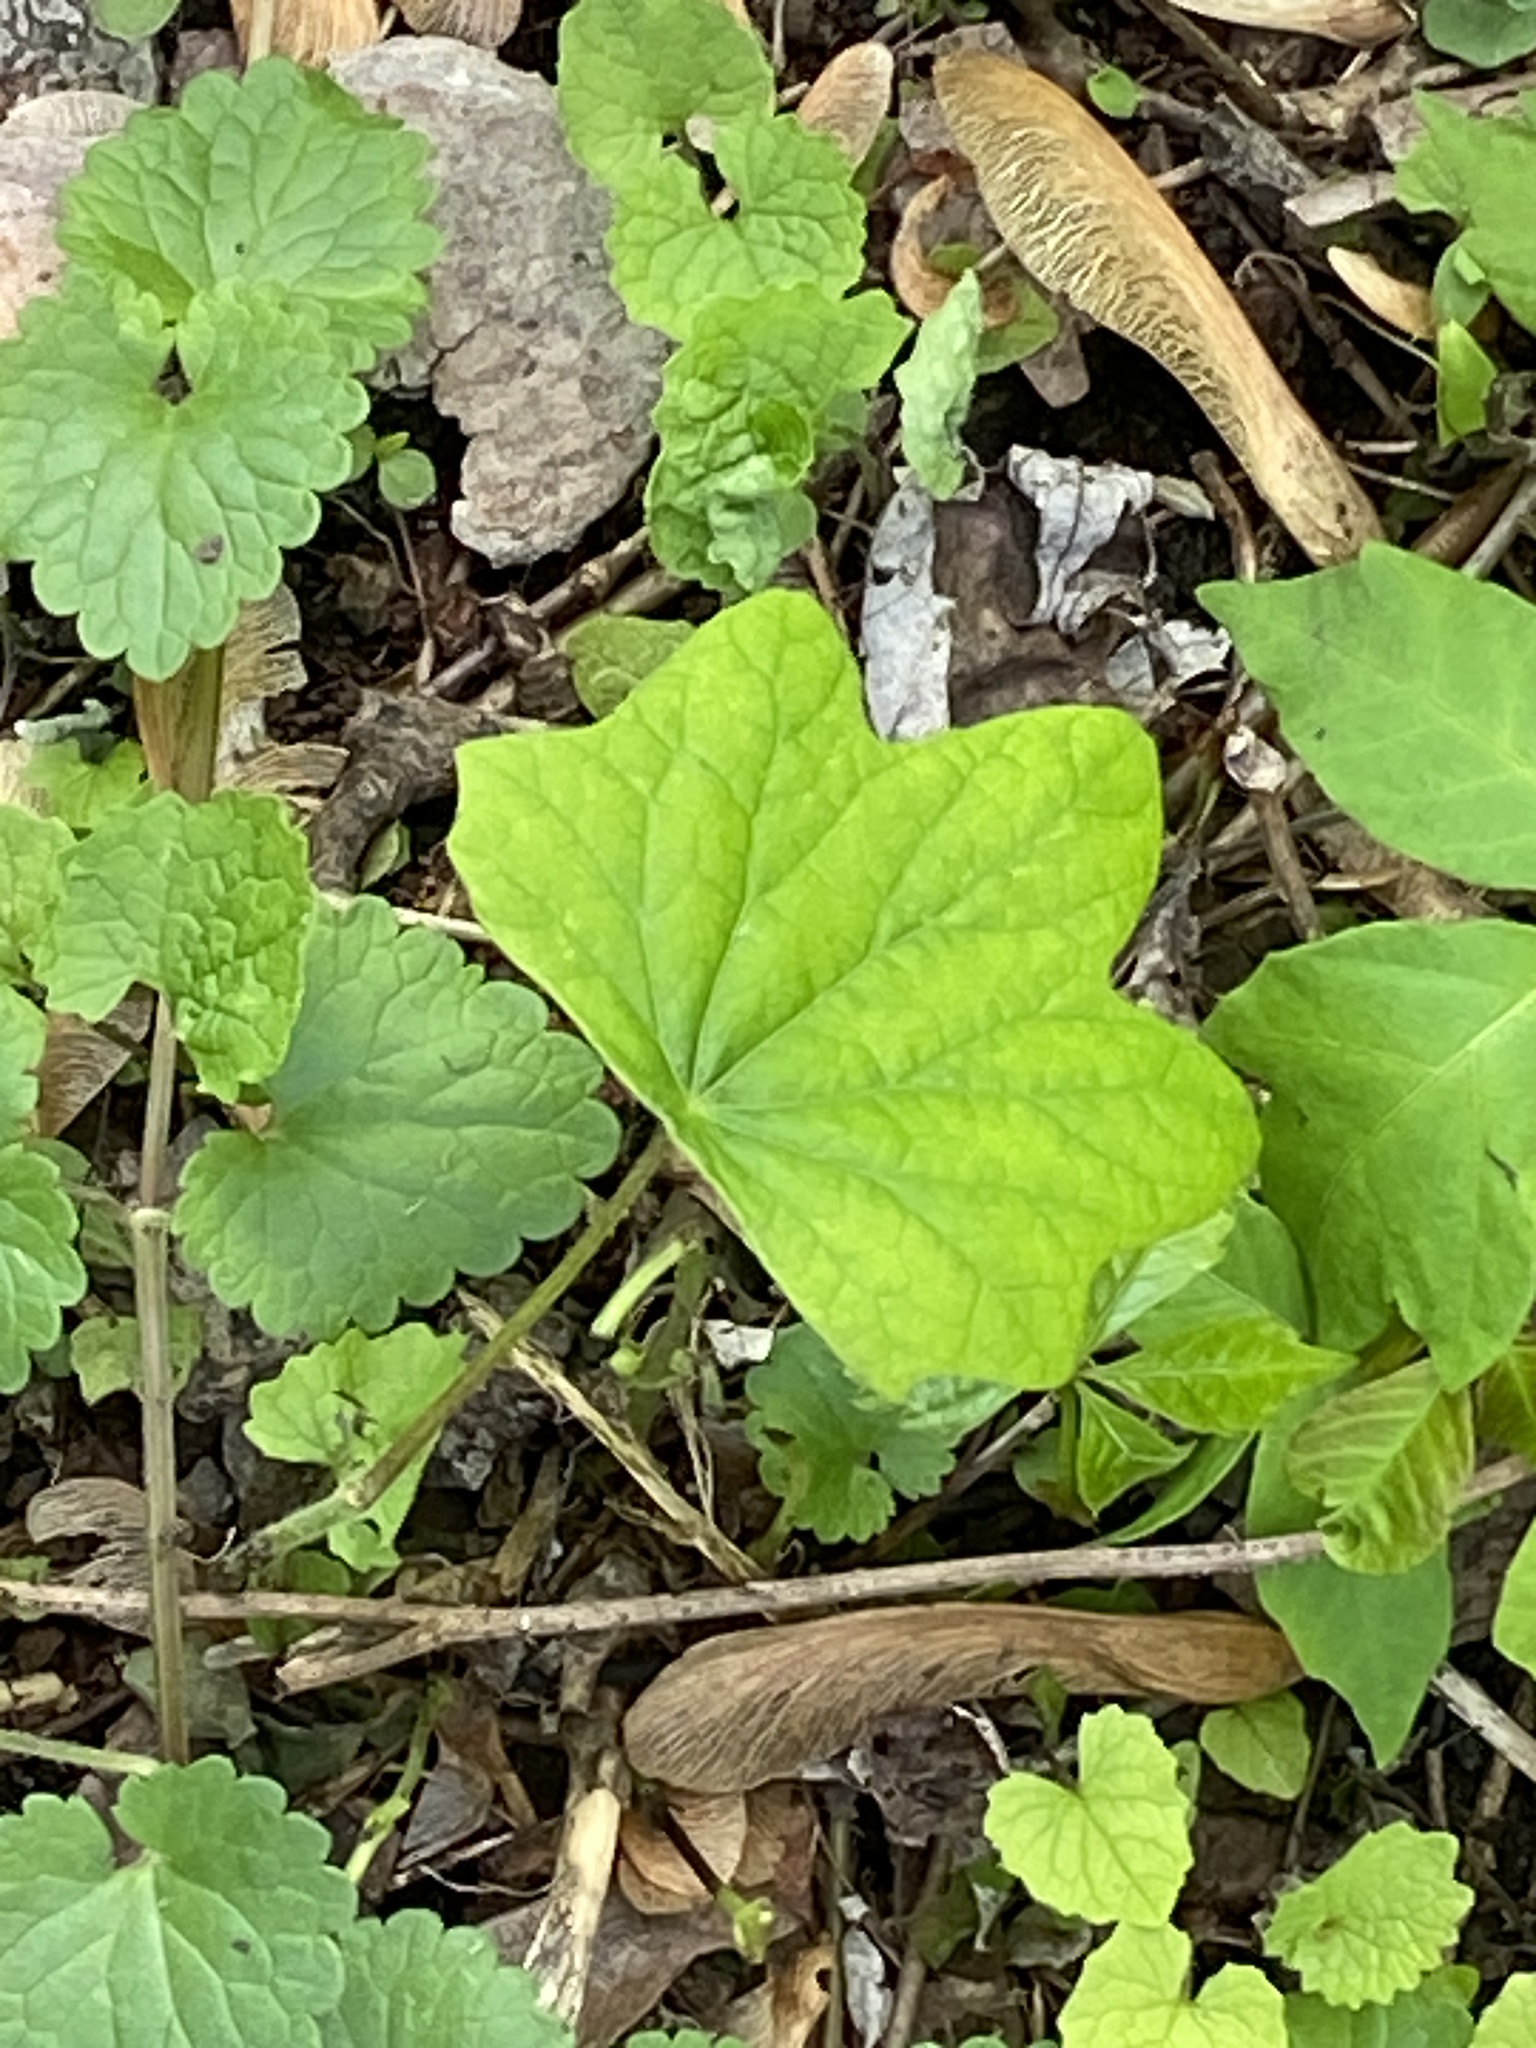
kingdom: Plantae
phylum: Tracheophyta
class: Magnoliopsida
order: Ranunculales
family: Menispermaceae
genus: Menispermum
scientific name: Menispermum canadense
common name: Moonseed
